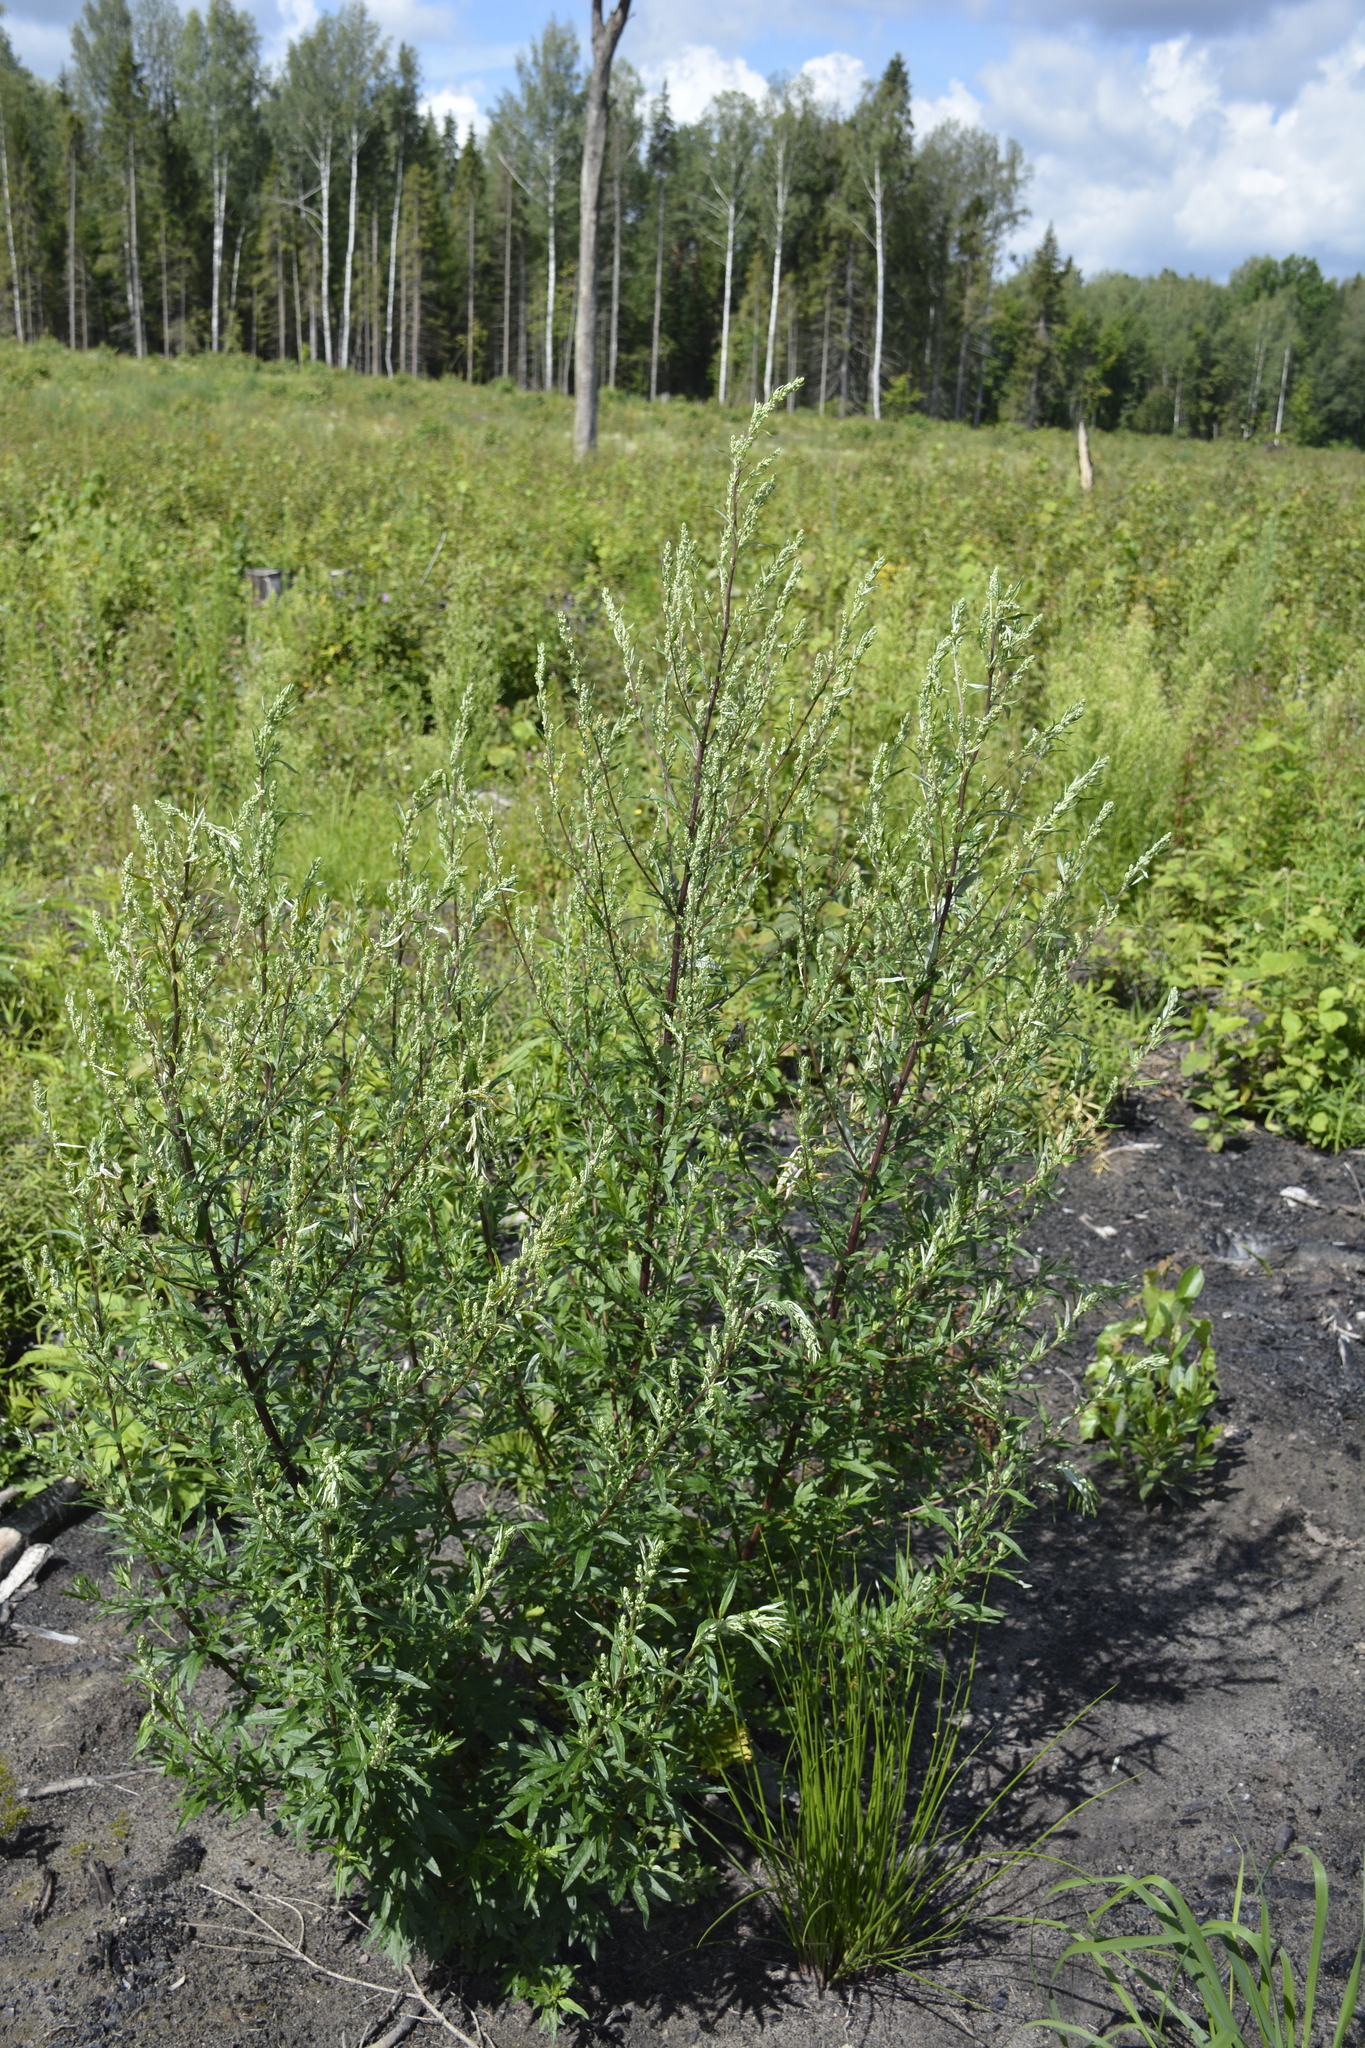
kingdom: Plantae
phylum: Tracheophyta
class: Magnoliopsida
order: Asterales
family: Asteraceae
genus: Artemisia
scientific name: Artemisia vulgaris
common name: Mugwort
